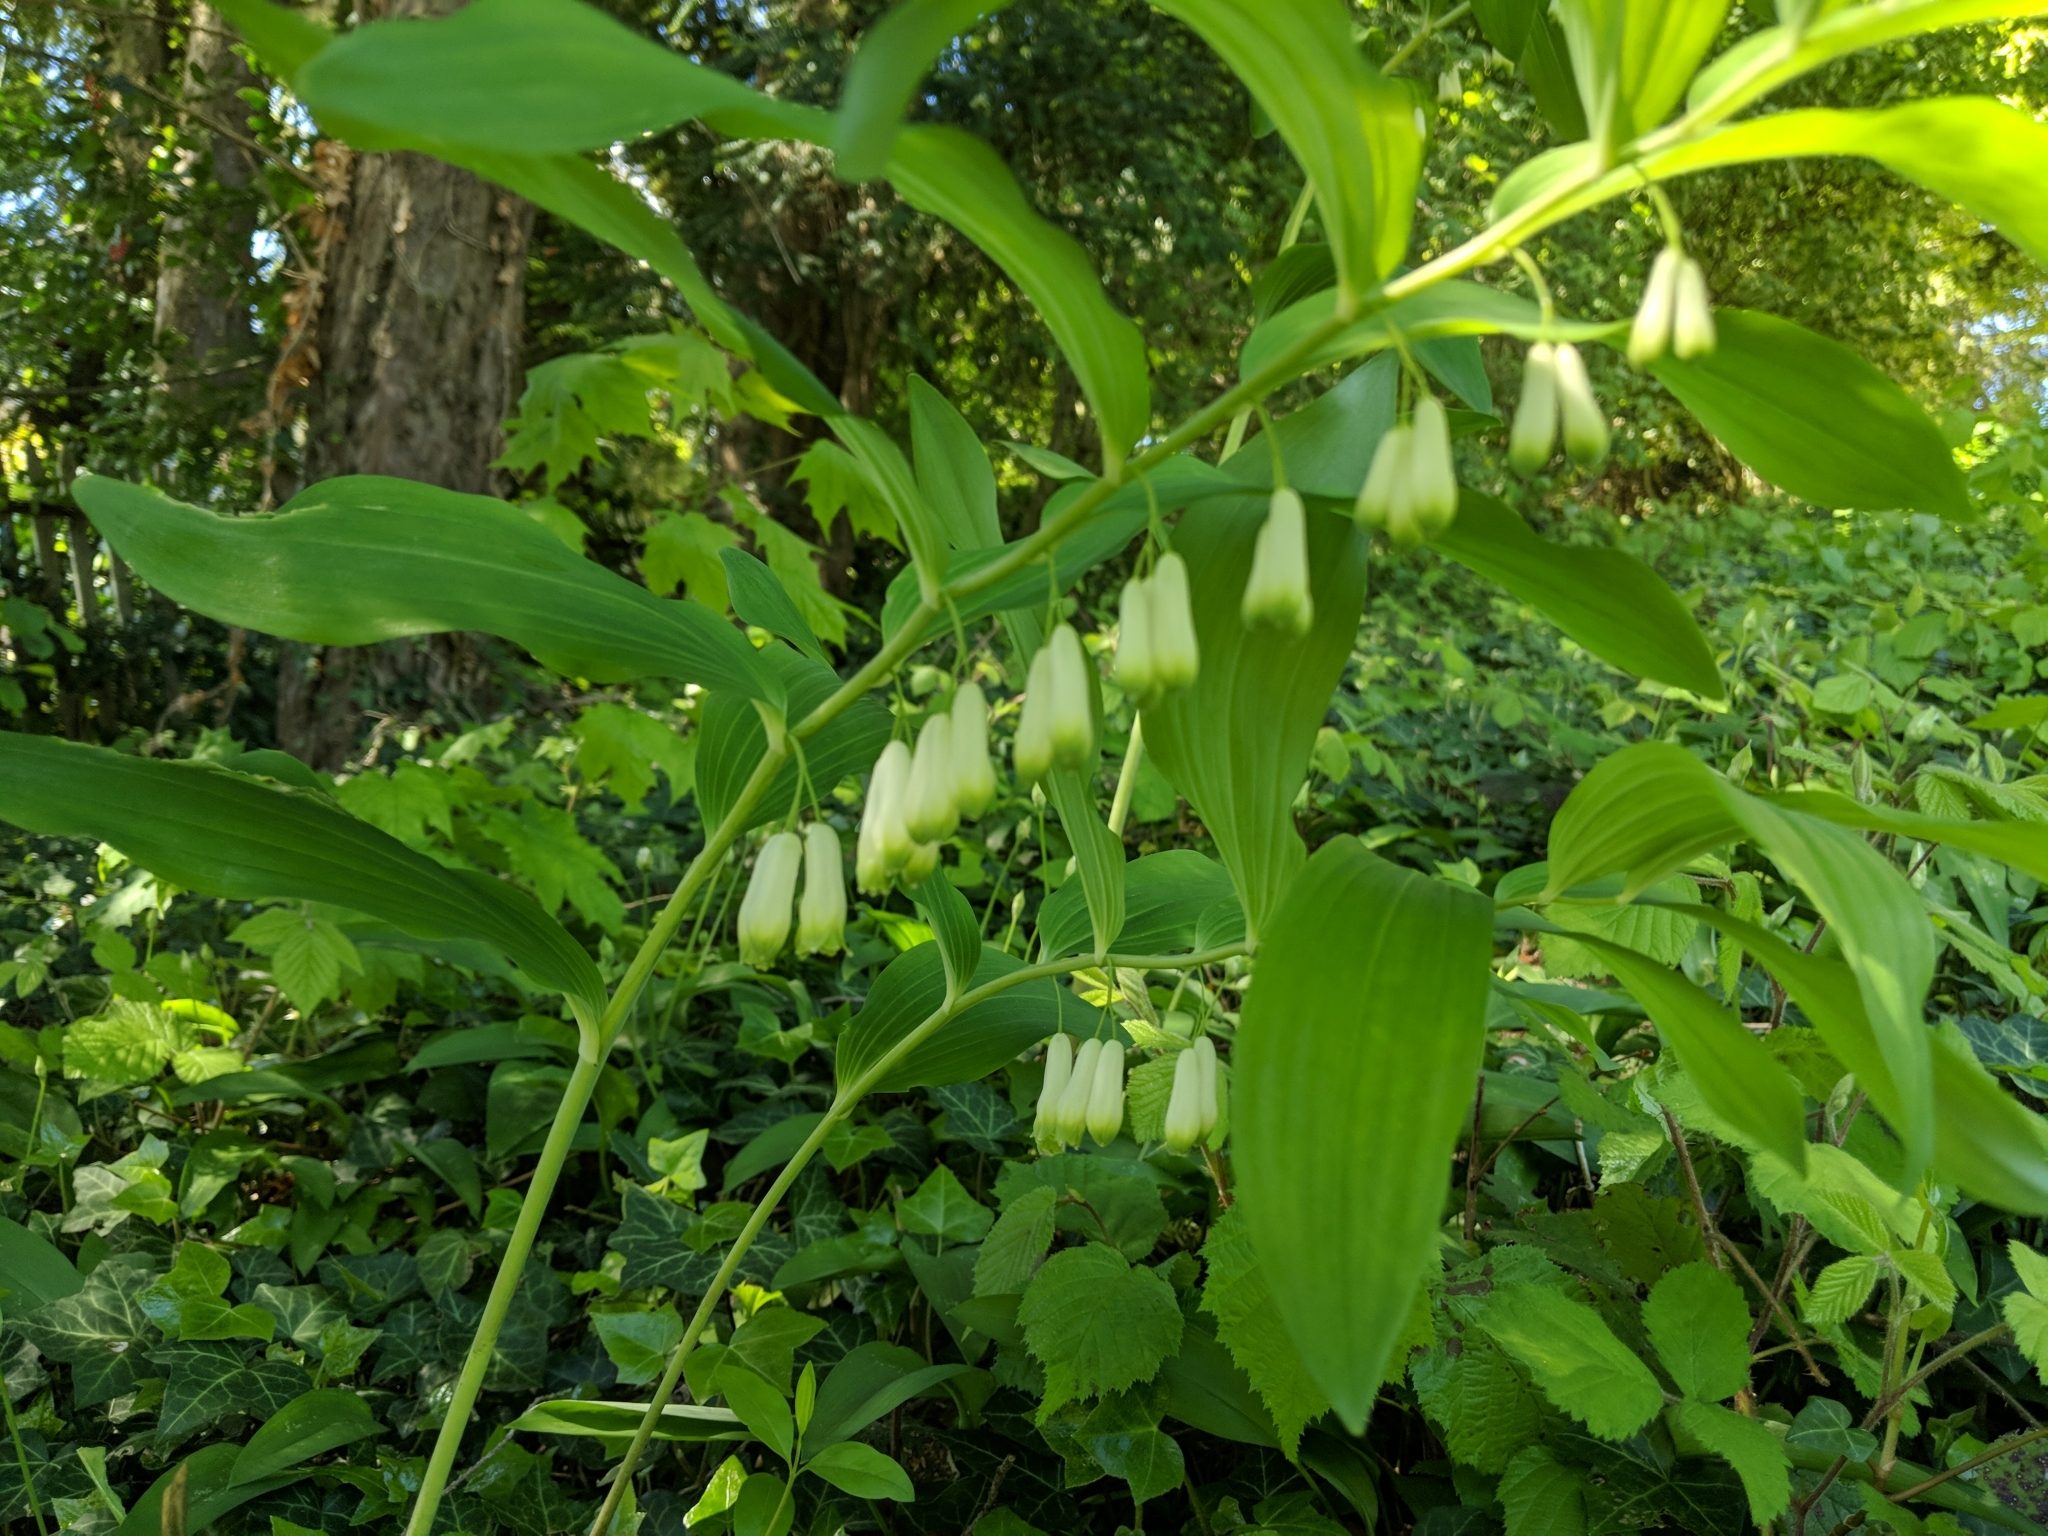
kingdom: Plantae
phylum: Tracheophyta
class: Liliopsida
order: Asparagales
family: Asparagaceae
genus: Polygonatum
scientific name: Polygonatum multiflorum
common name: Solomon's-seal
